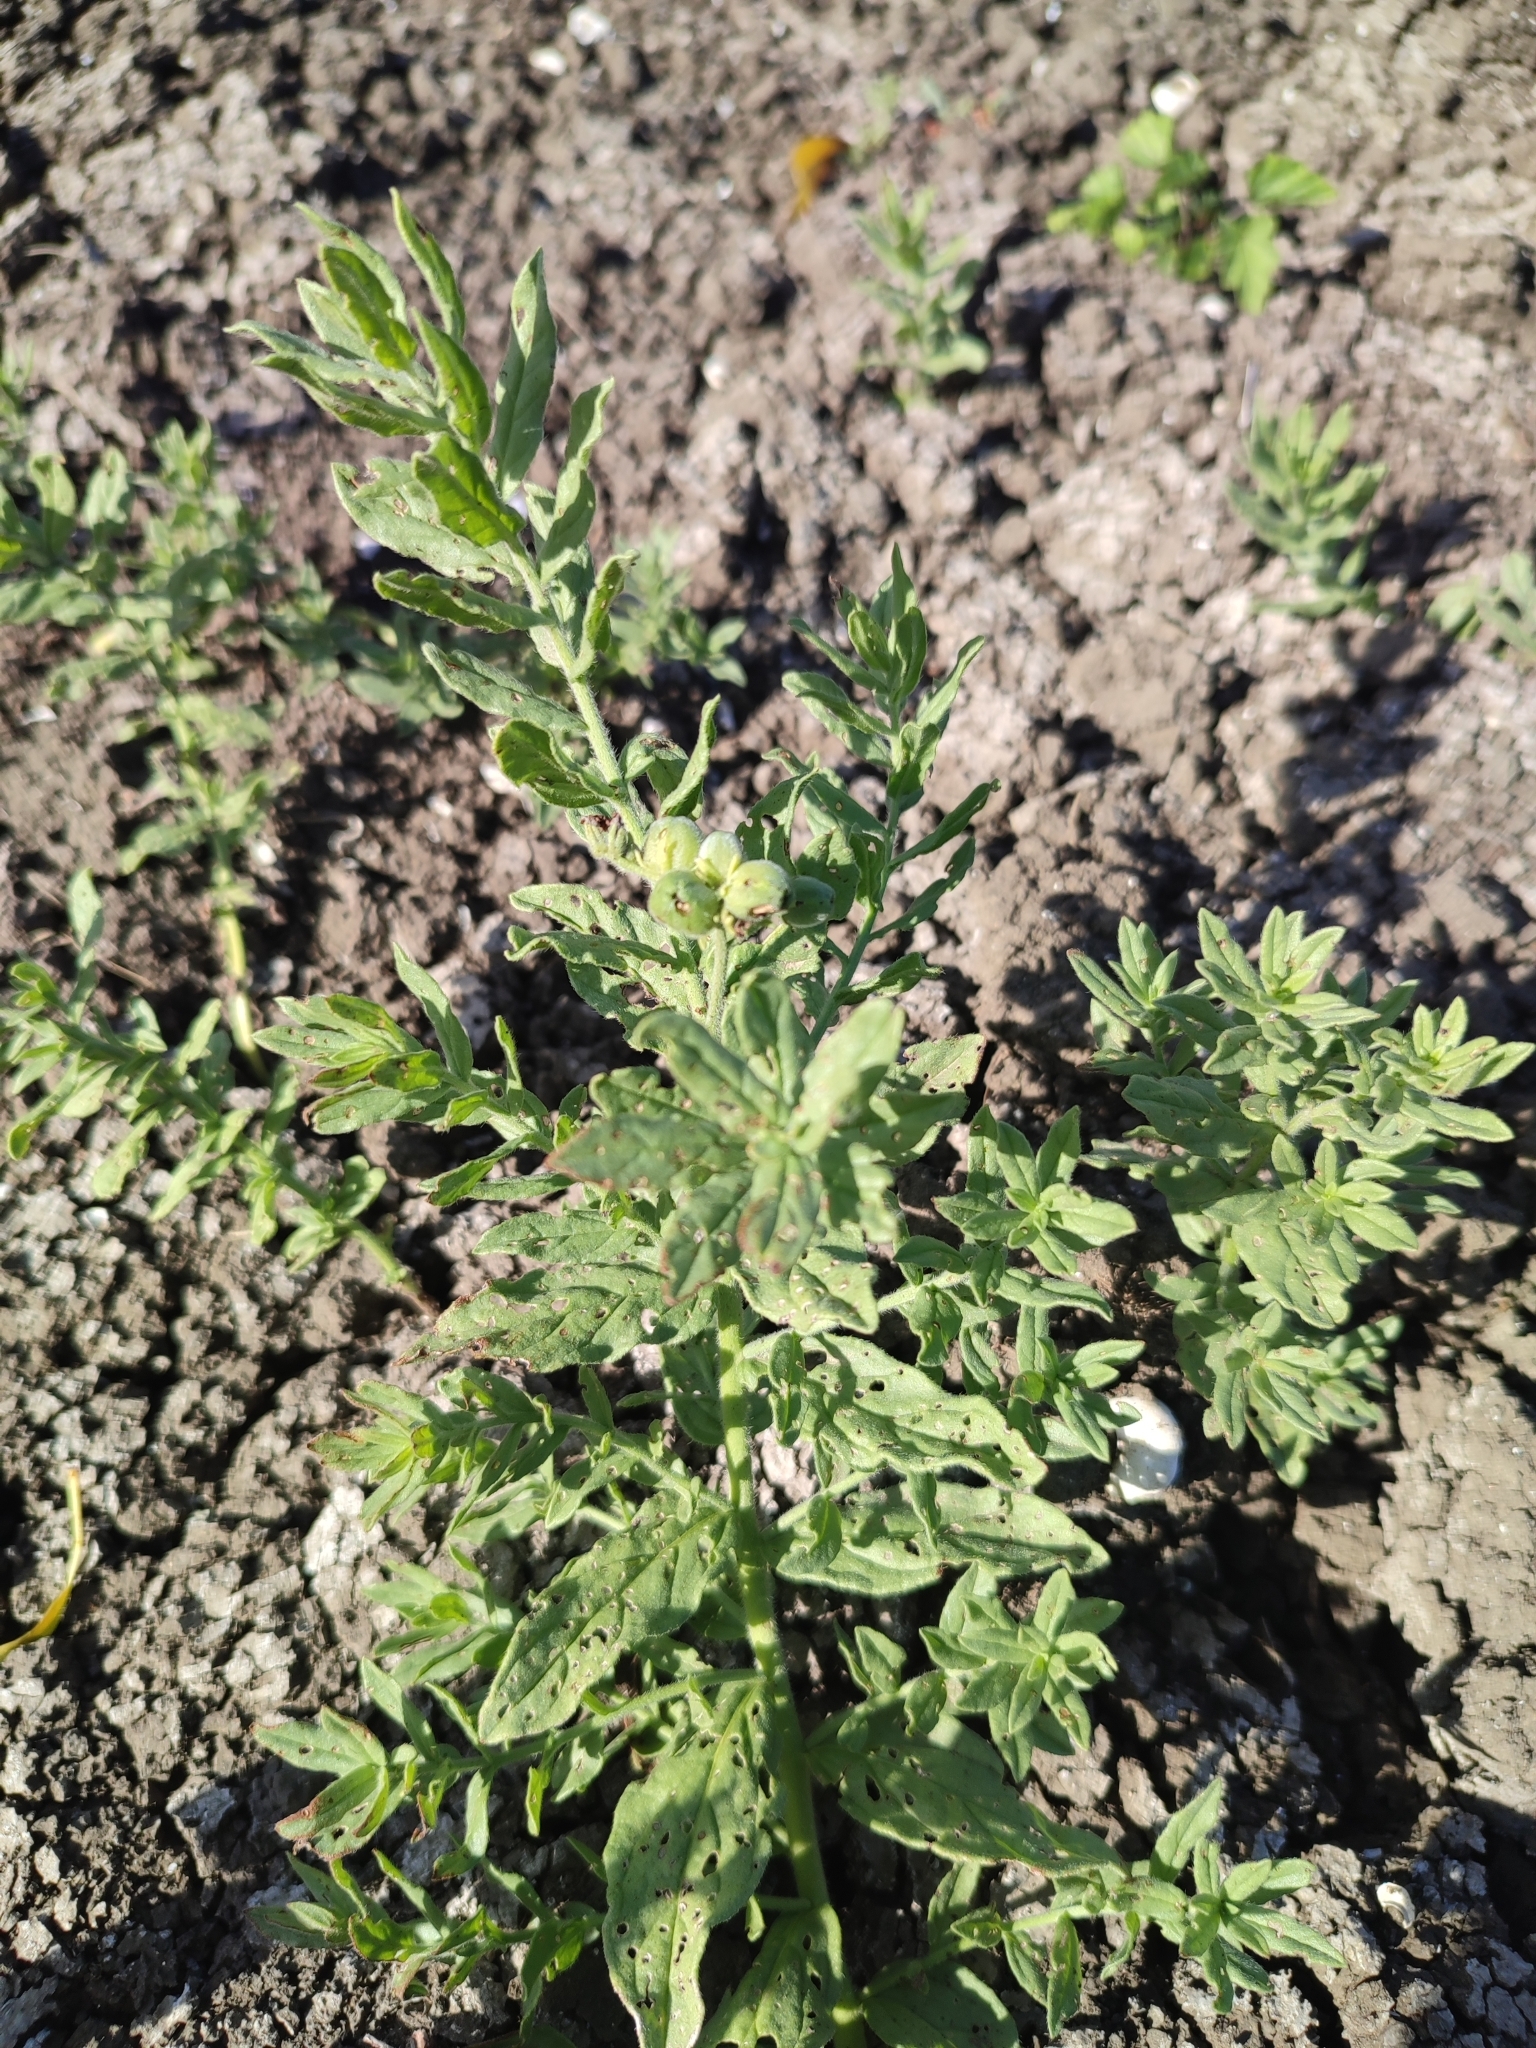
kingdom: Plantae
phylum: Tracheophyta
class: Magnoliopsida
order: Boraginales
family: Heliotropiaceae
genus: Tournefortia
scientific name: Tournefortia sibirica
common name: Siberian sea rosemary
